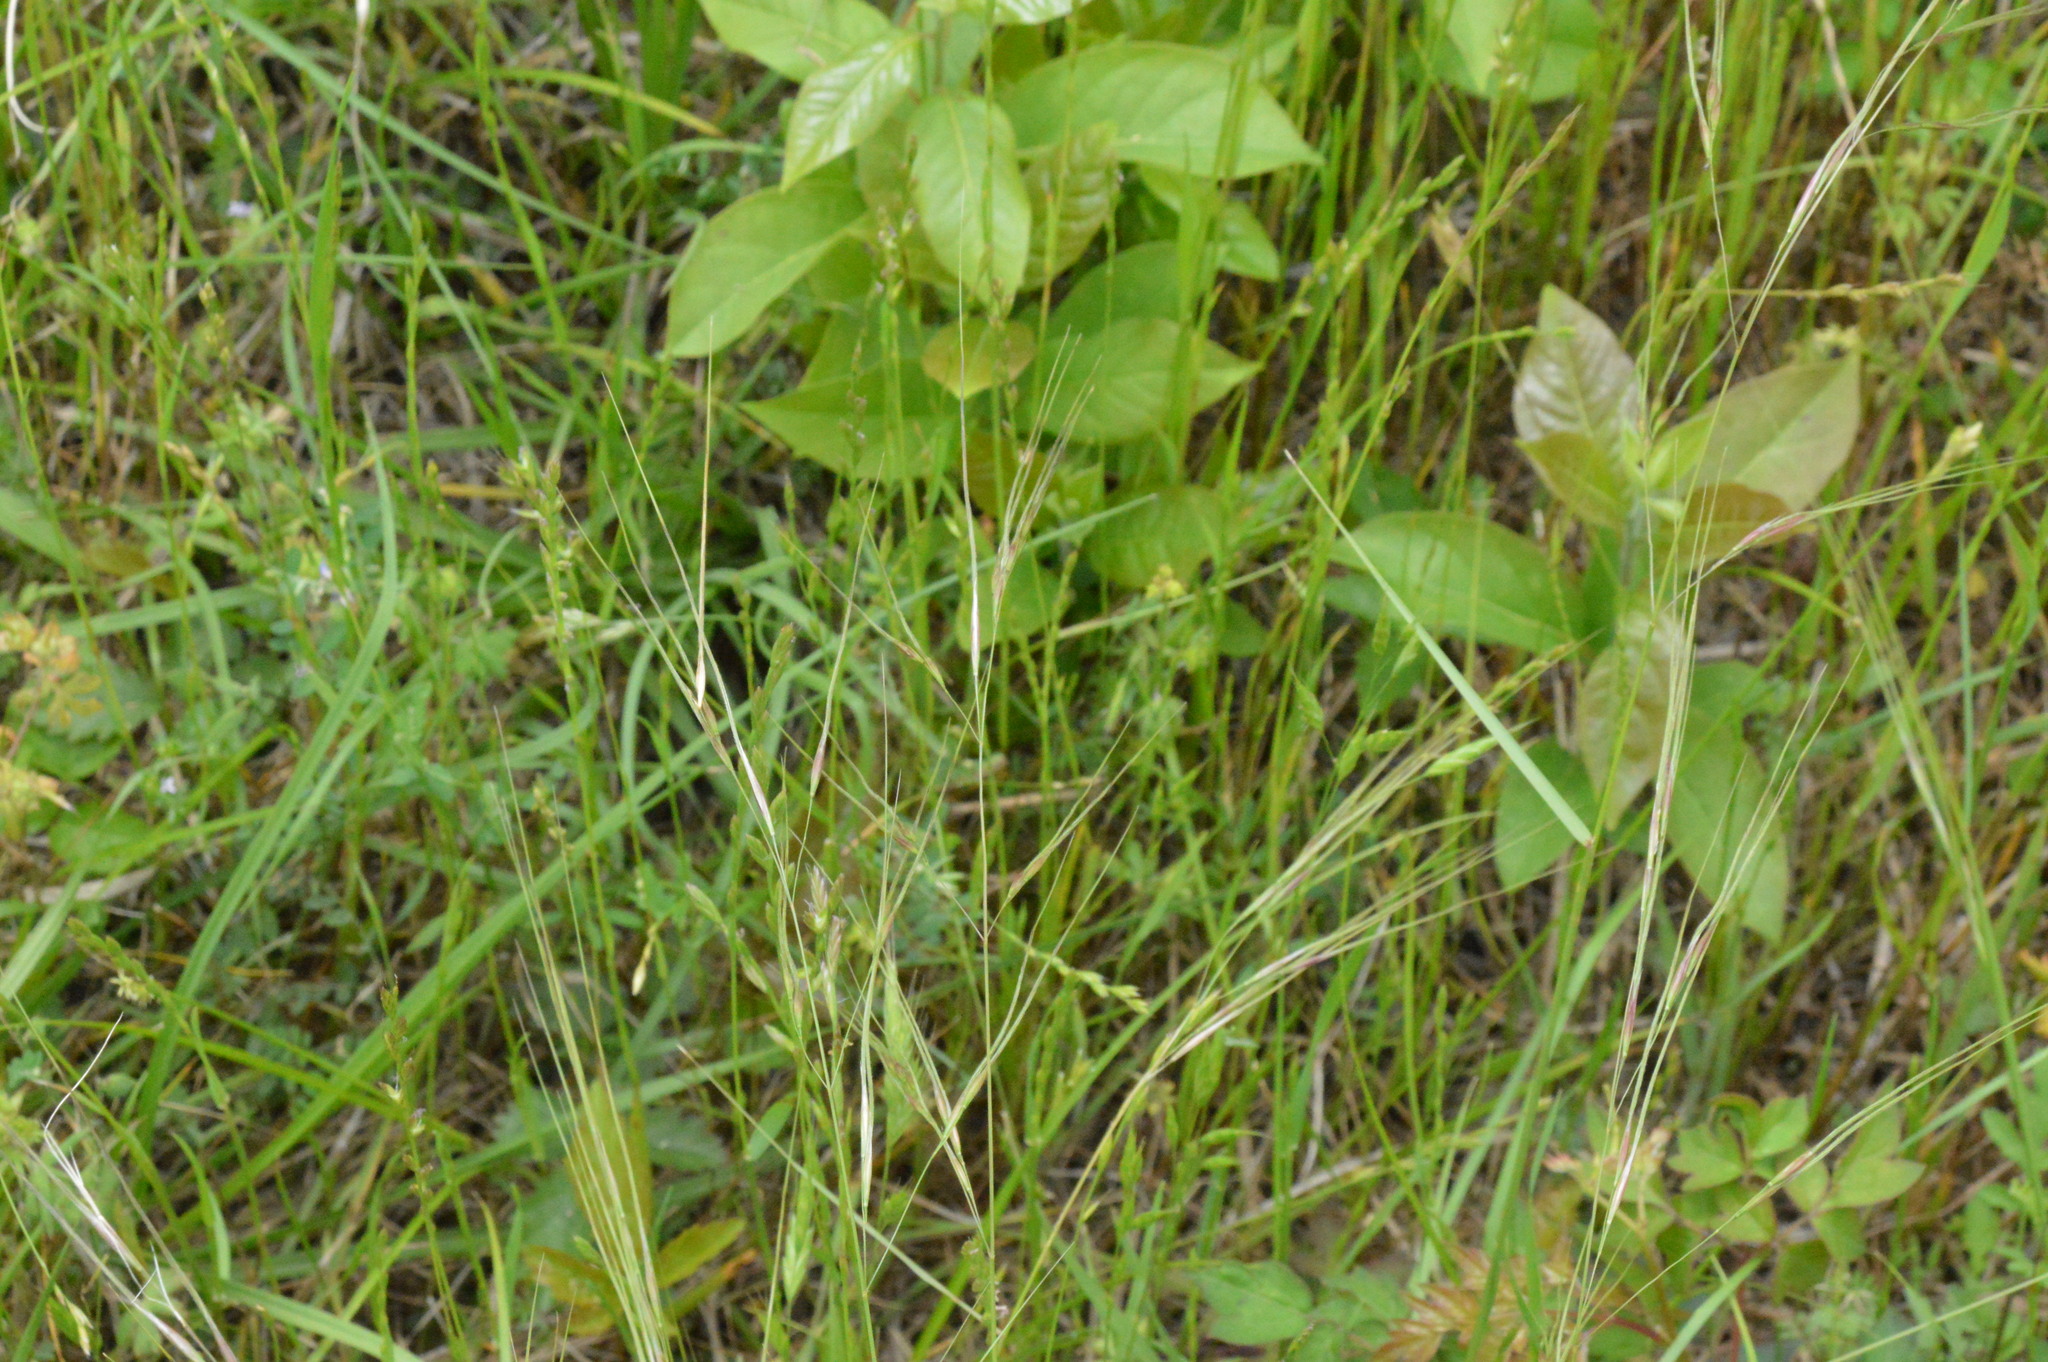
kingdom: Plantae
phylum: Tracheophyta
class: Liliopsida
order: Poales
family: Poaceae
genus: Nassella
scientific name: Nassella leucotricha
